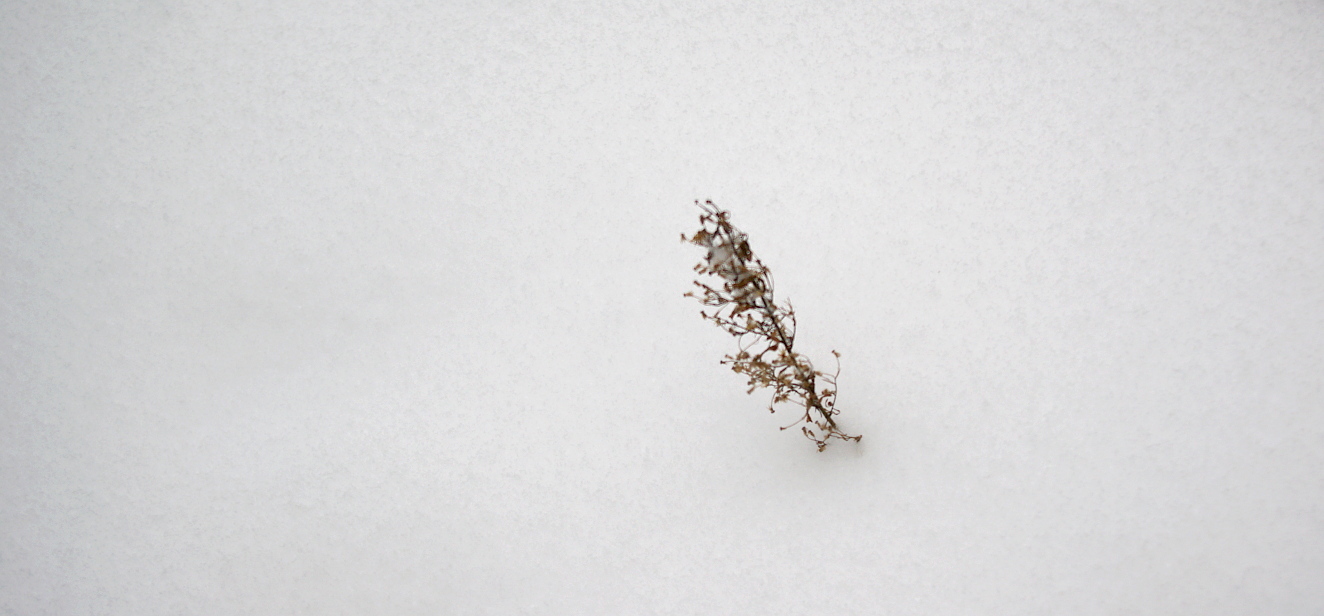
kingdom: Plantae
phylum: Tracheophyta
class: Magnoliopsida
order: Asterales
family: Asteraceae
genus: Erigeron
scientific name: Erigeron canadensis
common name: Canadian fleabane
